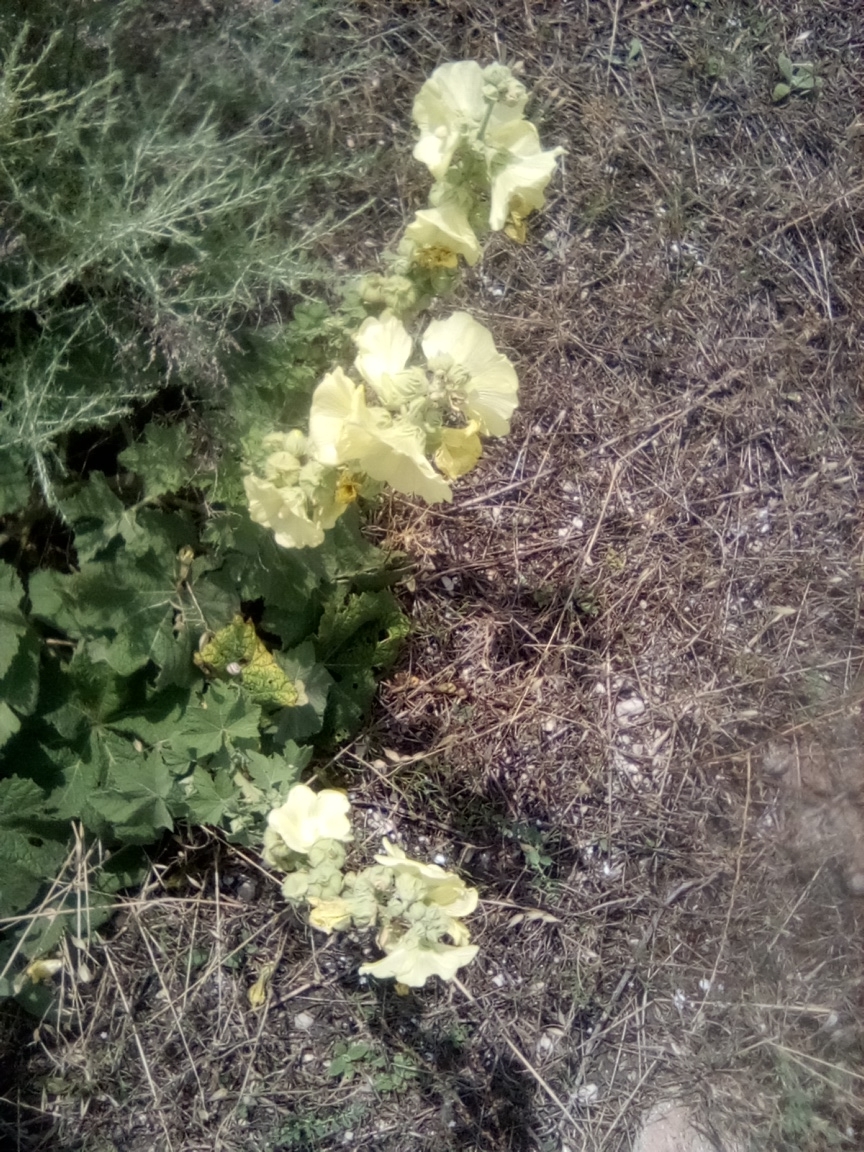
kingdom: Plantae
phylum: Tracheophyta
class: Magnoliopsida
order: Malvales
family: Malvaceae
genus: Alcea
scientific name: Alcea rugosa
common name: Russian hollyhock
